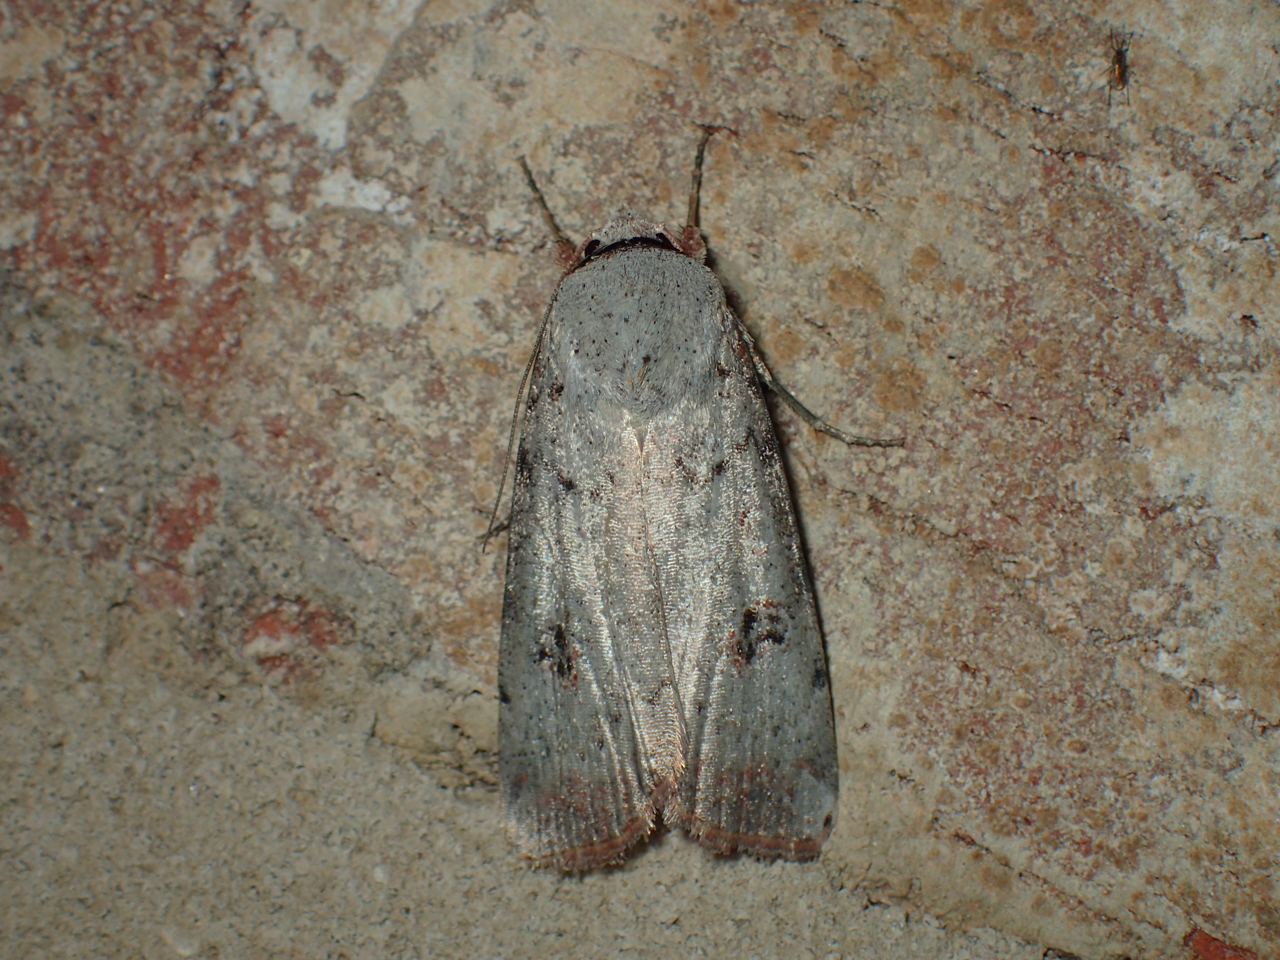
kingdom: Animalia
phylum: Arthropoda
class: Insecta
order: Lepidoptera
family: Noctuidae
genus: Anicla
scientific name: Anicla infecta
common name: Green cutworm
